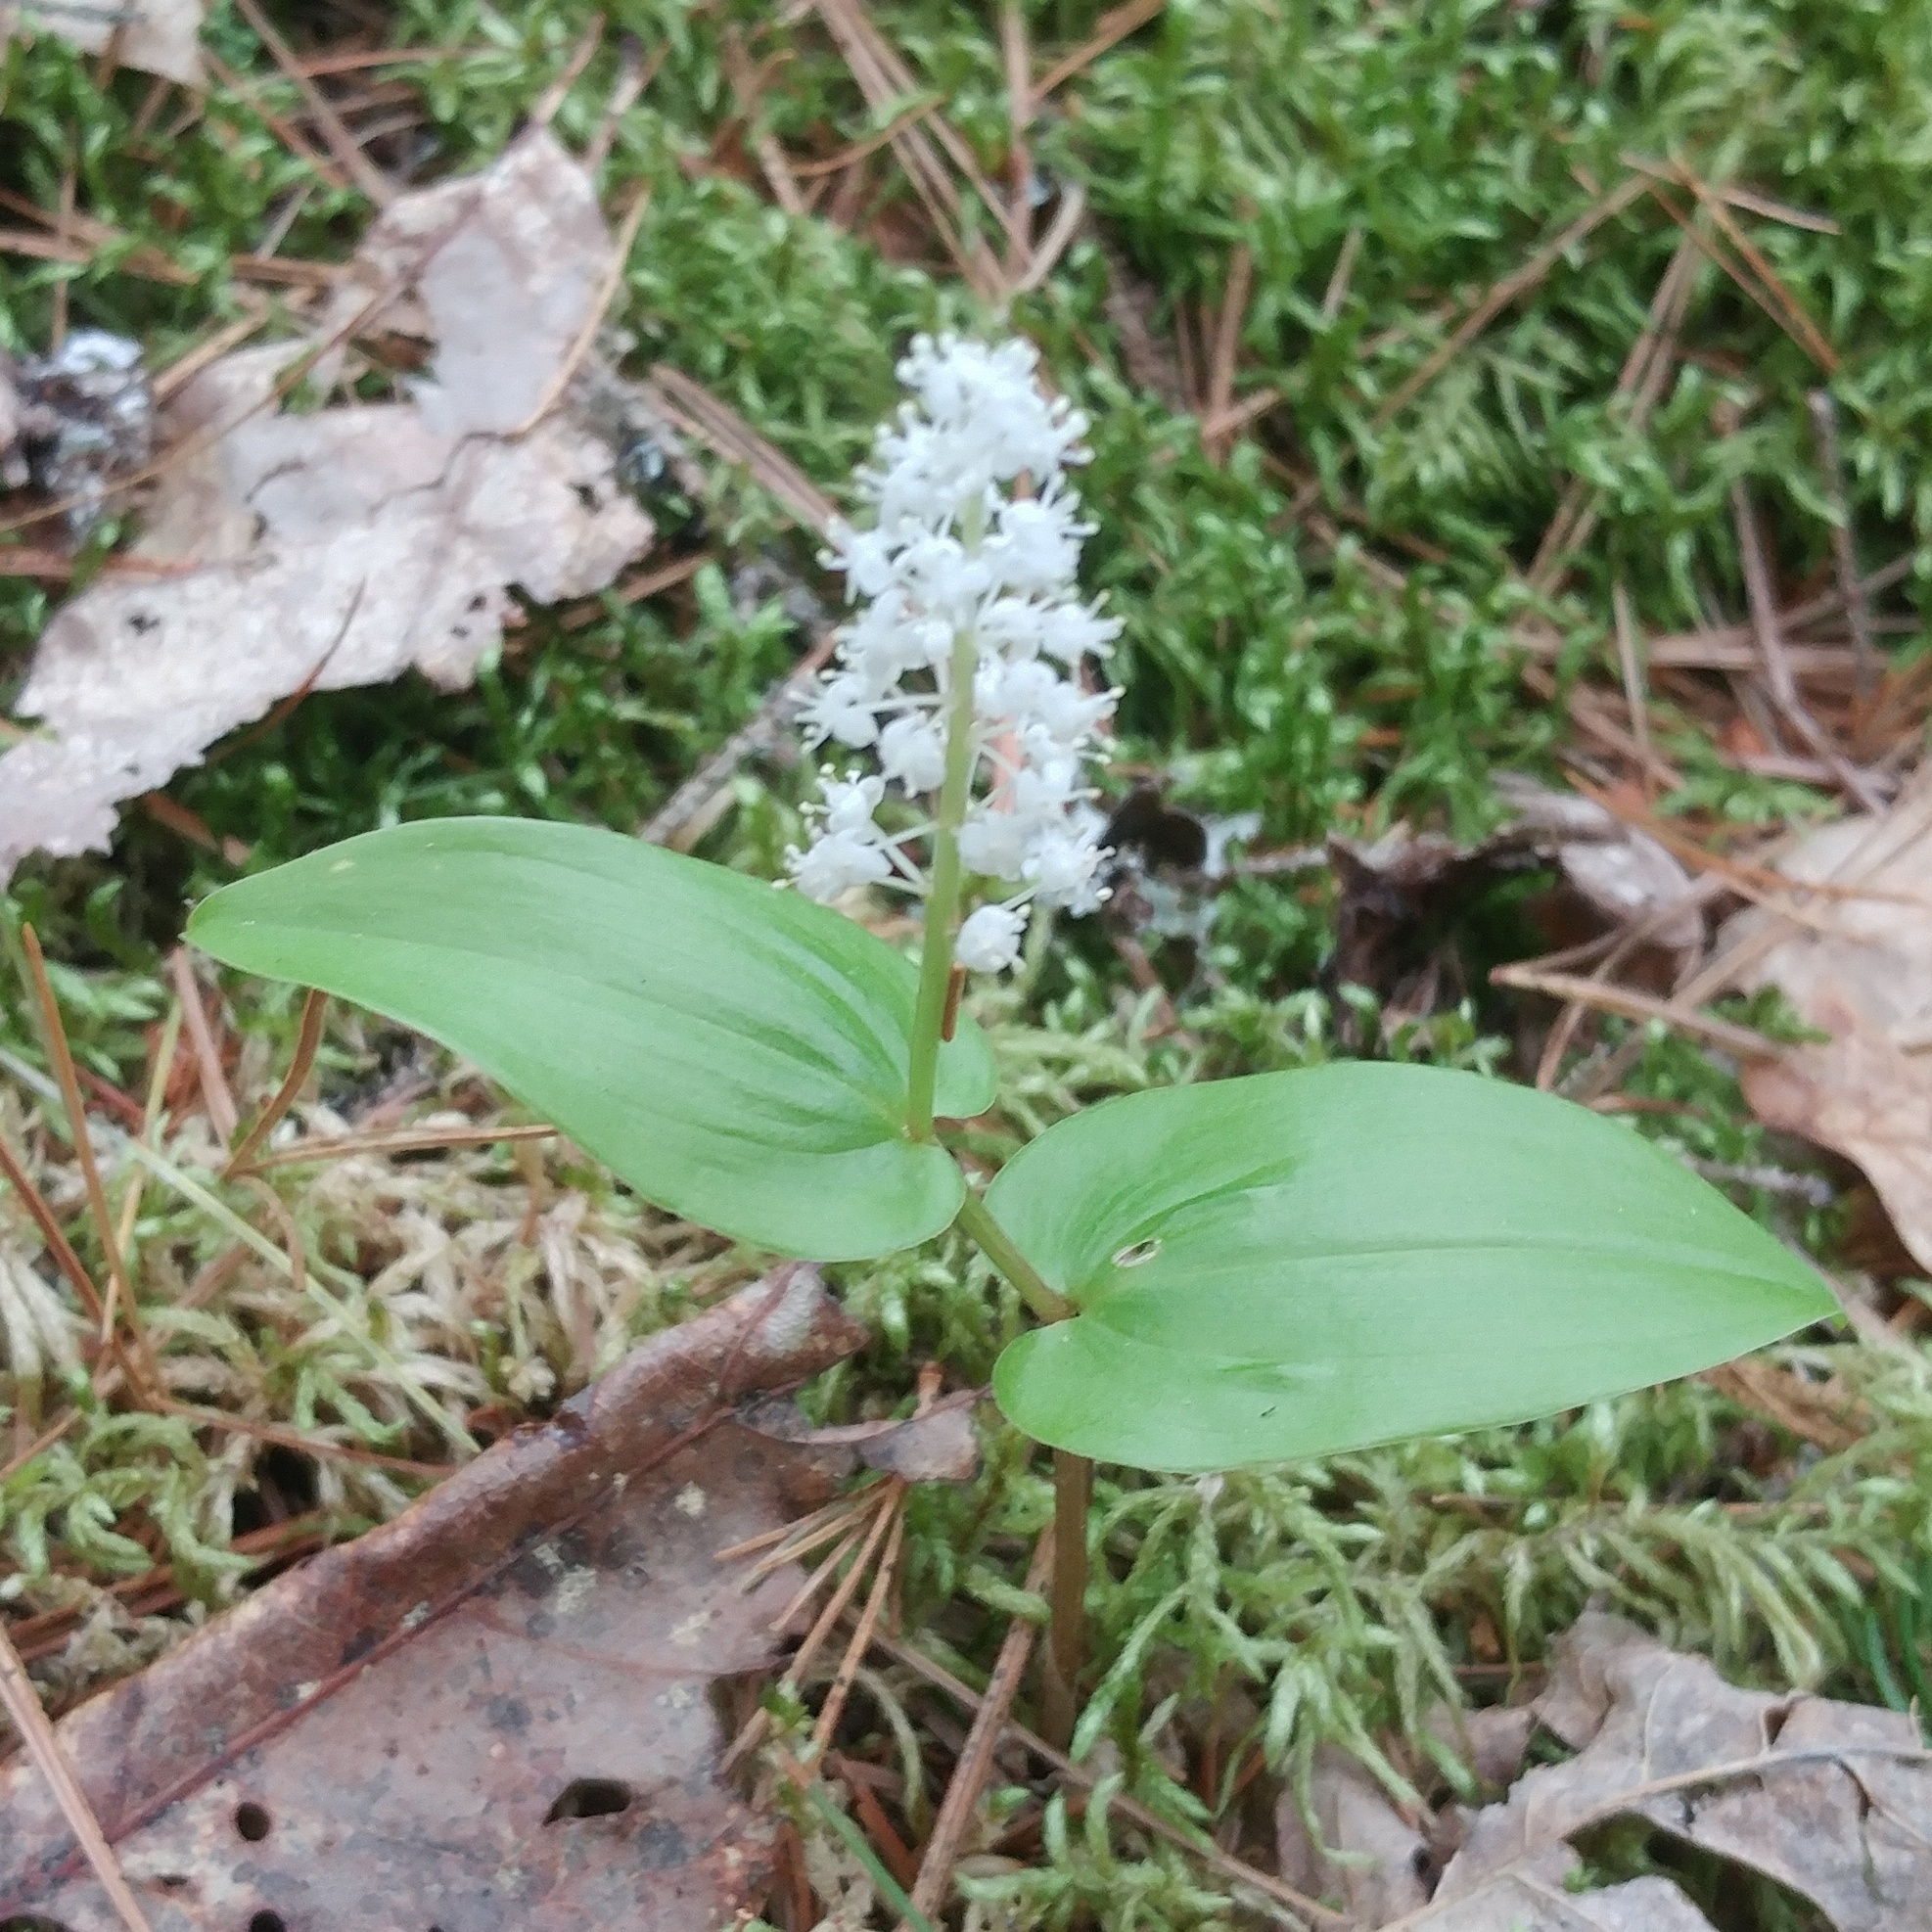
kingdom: Plantae
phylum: Tracheophyta
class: Liliopsida
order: Asparagales
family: Asparagaceae
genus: Maianthemum
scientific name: Maianthemum canadense
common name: False lily-of-the-valley
